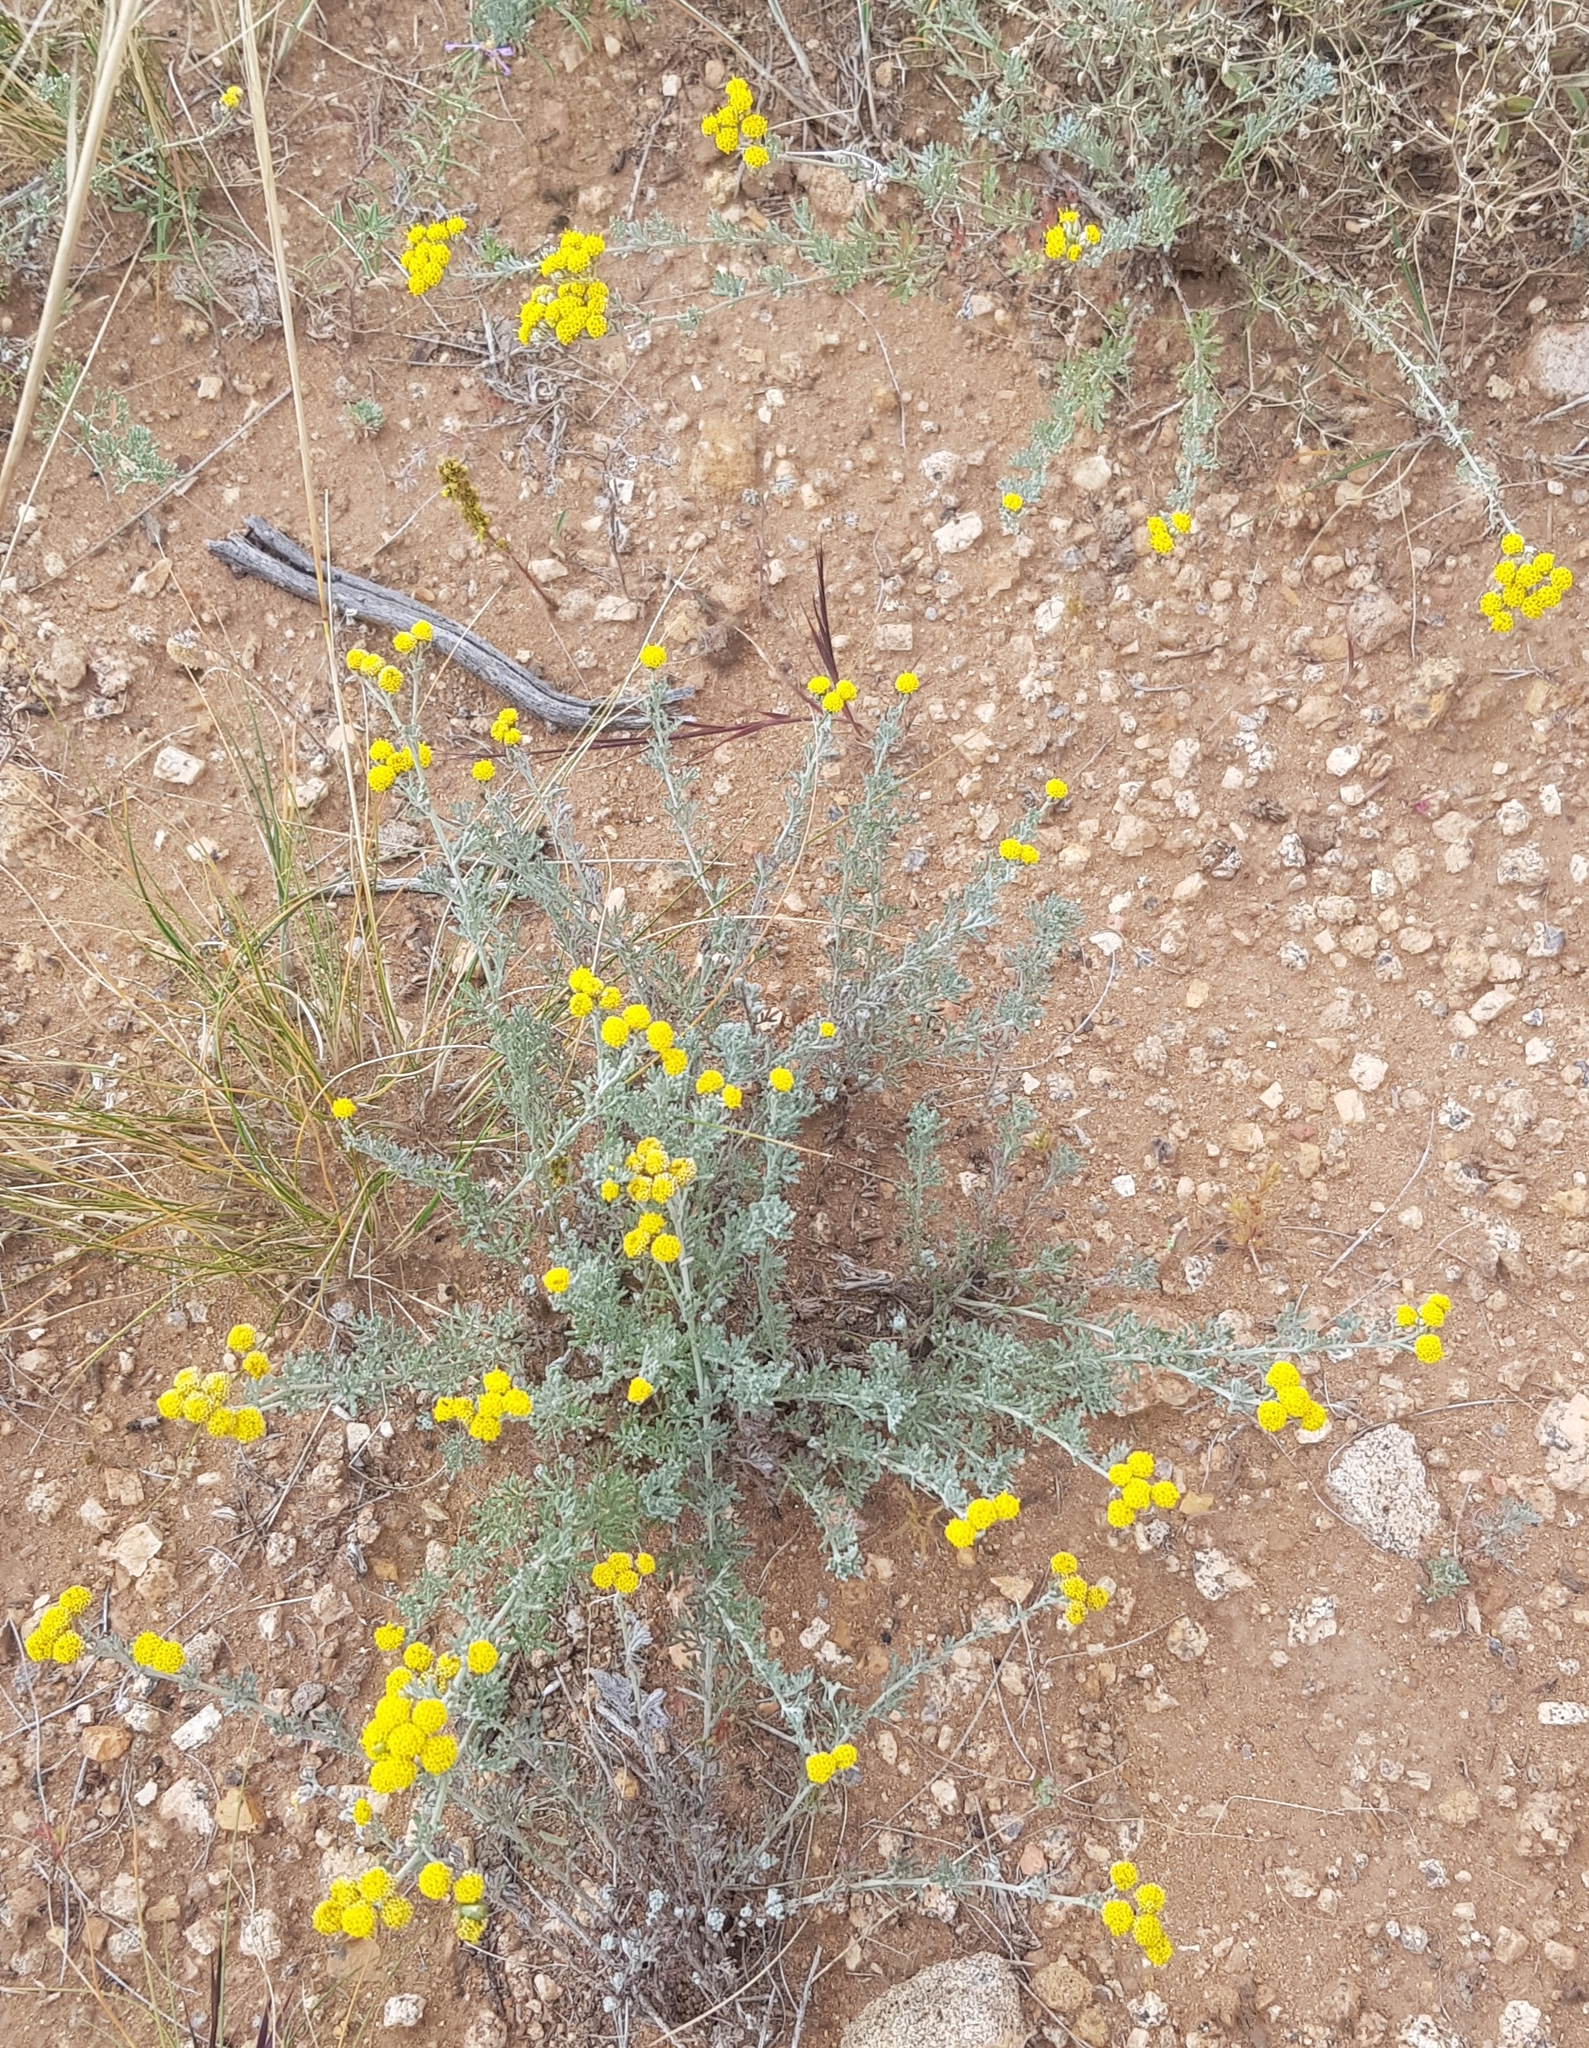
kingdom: Plantae
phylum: Tracheophyta
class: Magnoliopsida
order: Asterales
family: Asteraceae
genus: Ajania
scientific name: Ajania achilleoides
